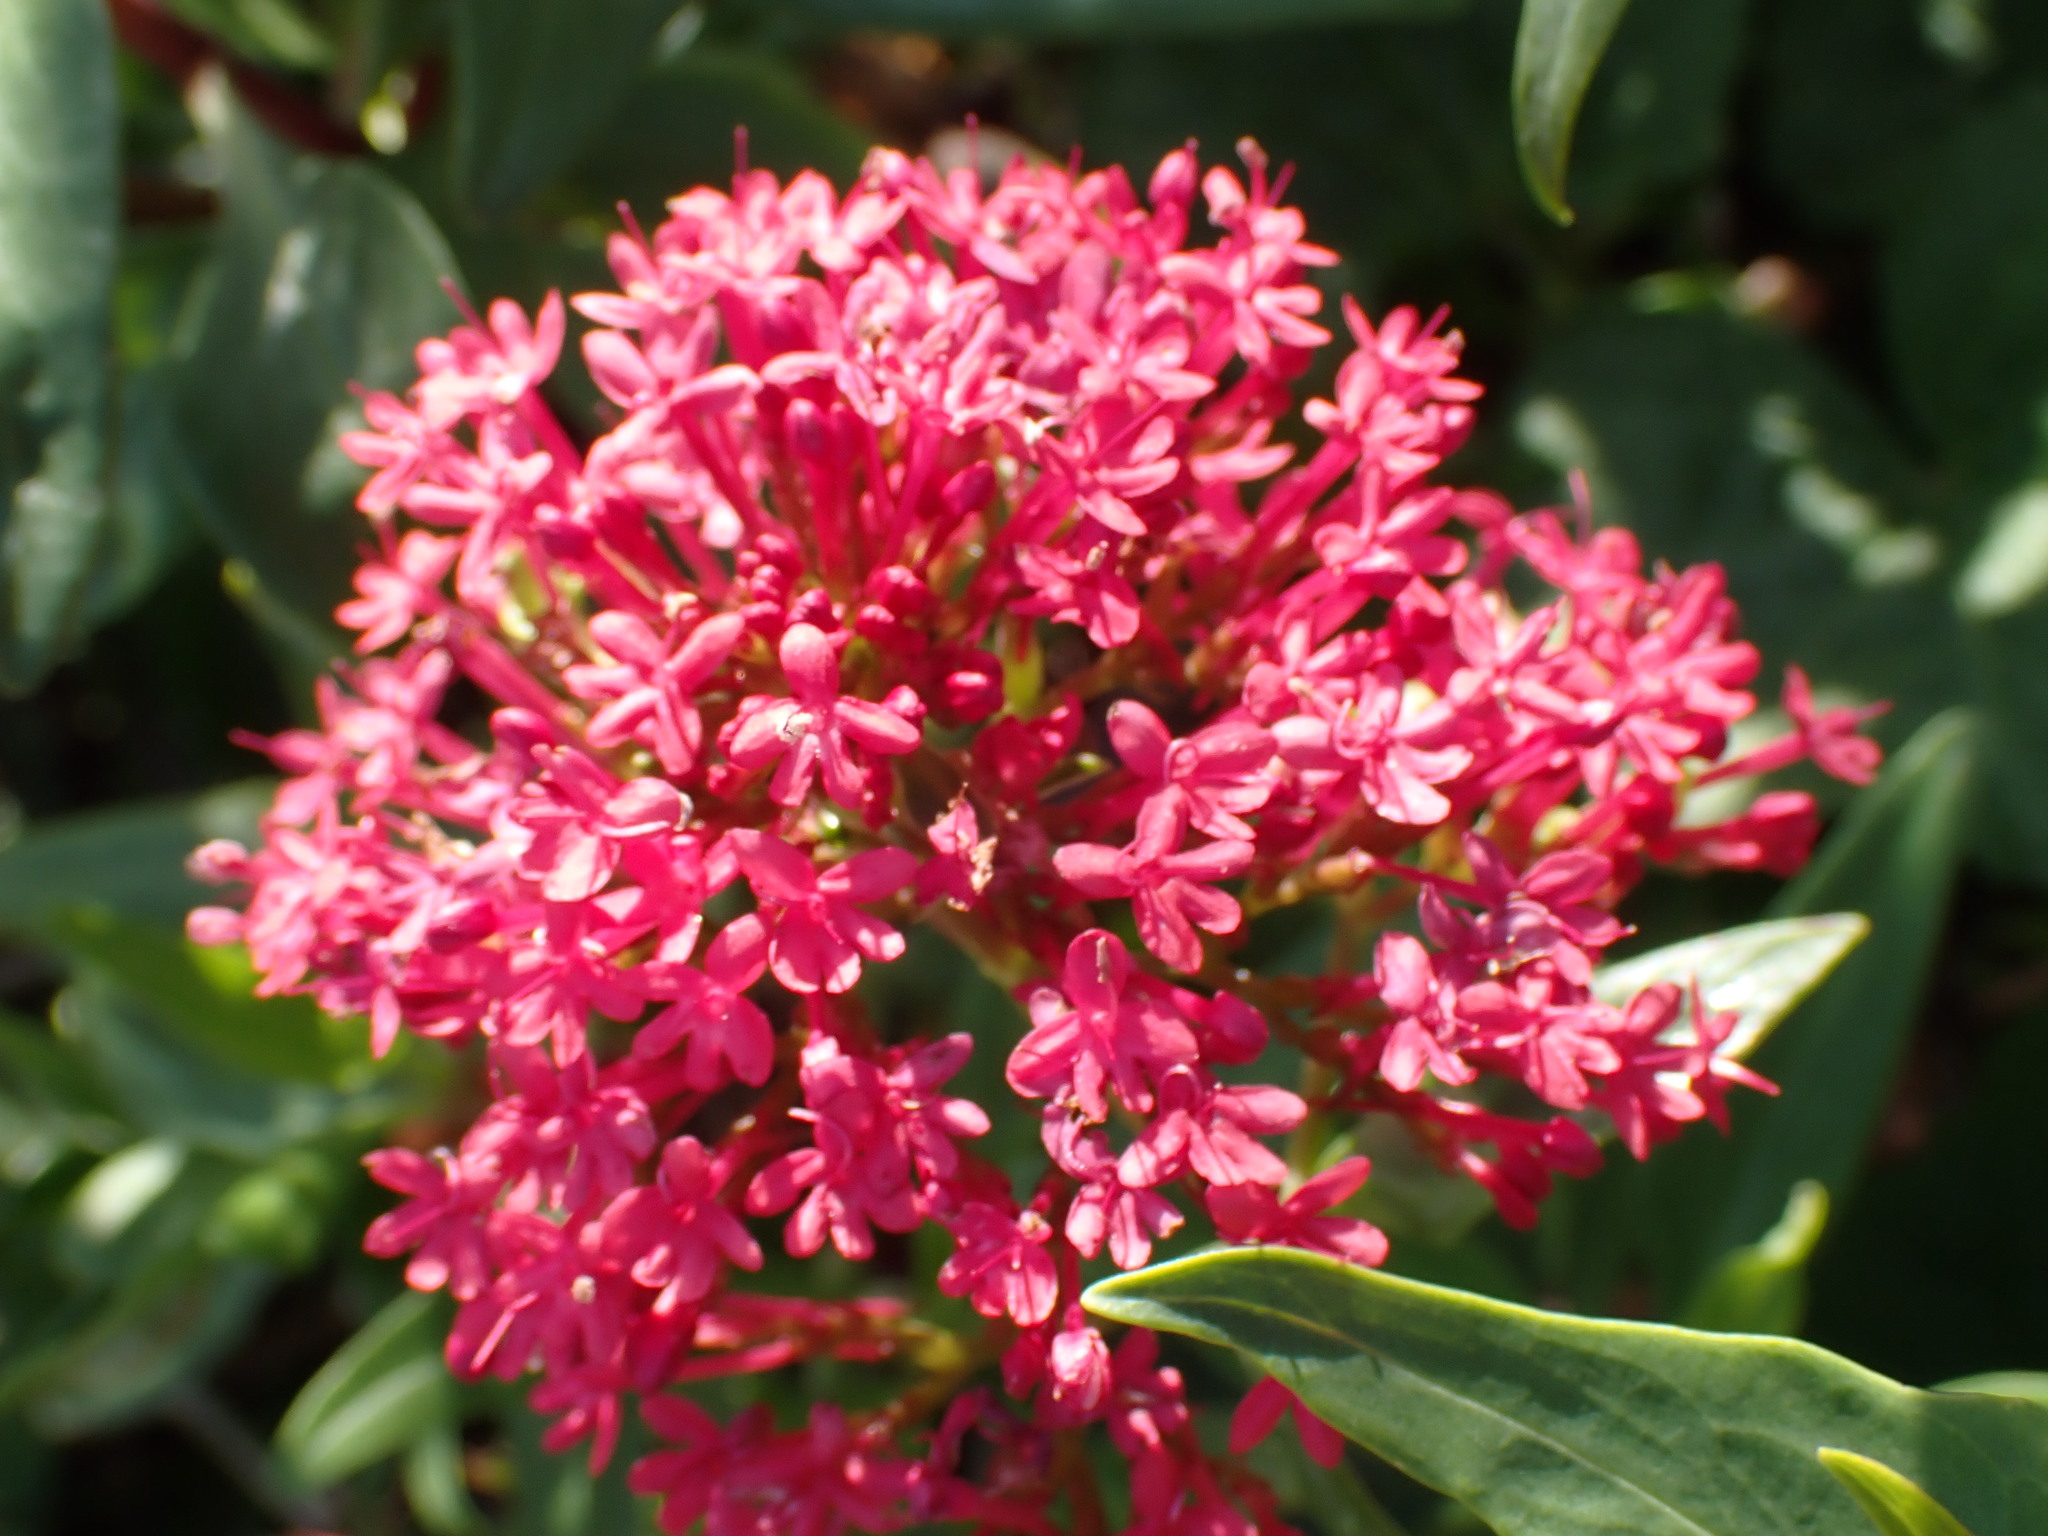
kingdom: Plantae
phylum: Tracheophyta
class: Magnoliopsida
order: Dipsacales
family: Caprifoliaceae
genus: Centranthus
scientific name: Centranthus ruber
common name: Red valerian
